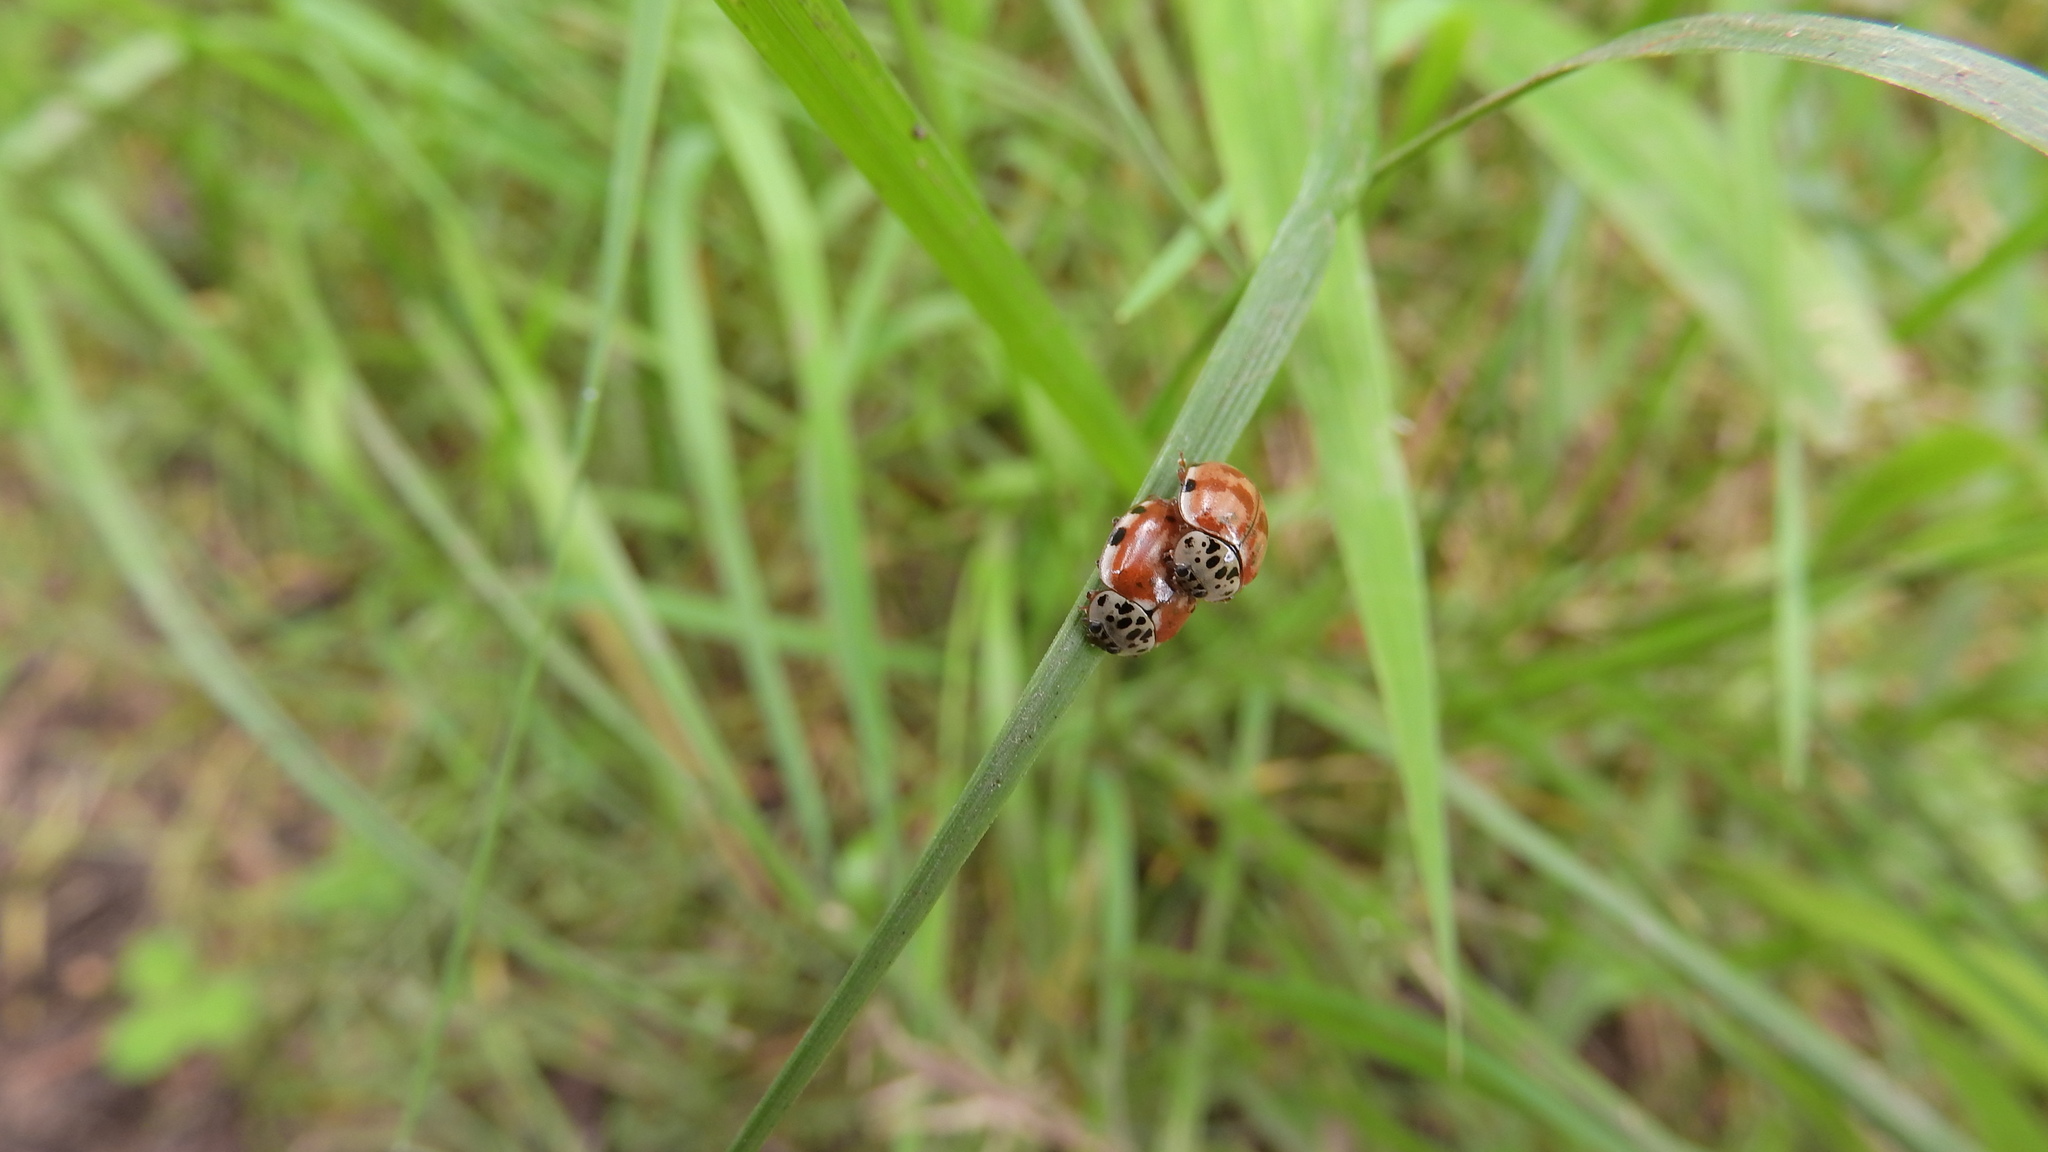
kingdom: Animalia
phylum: Arthropoda
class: Insecta
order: Coleoptera
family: Coccinellidae
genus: Harmonia
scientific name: Harmonia quadripunctata
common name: Cream-streaked ladybird
